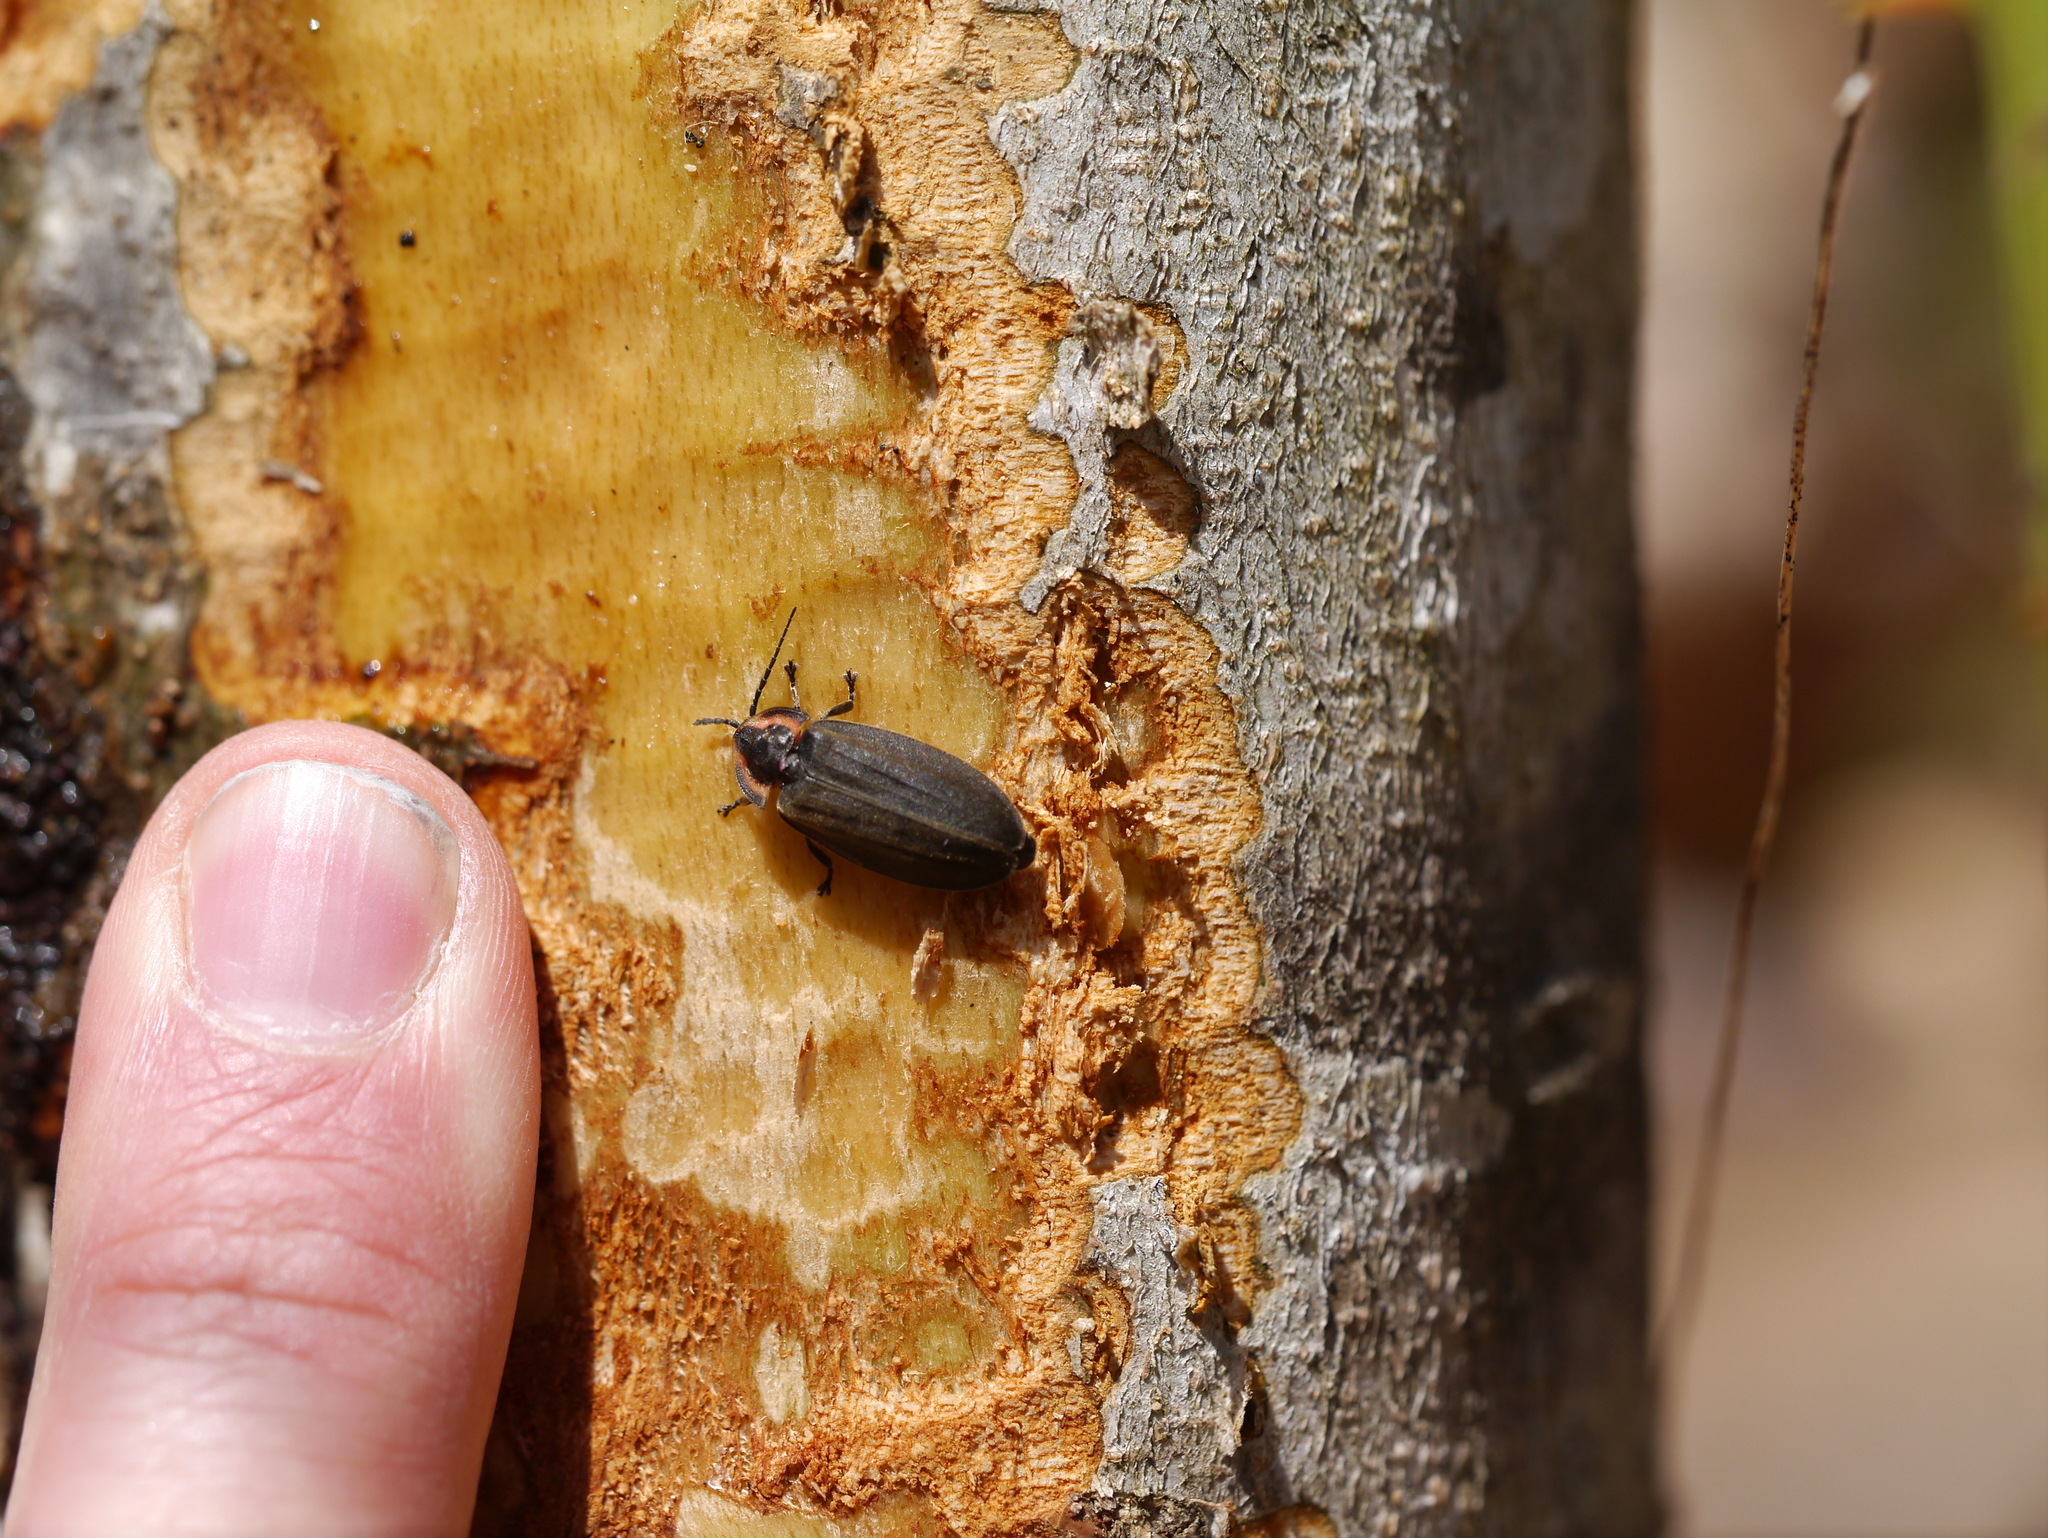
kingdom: Animalia
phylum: Arthropoda
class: Insecta
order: Coleoptera
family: Lampyridae
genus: Photinus
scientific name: Photinus corrusca
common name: Winter firefly
